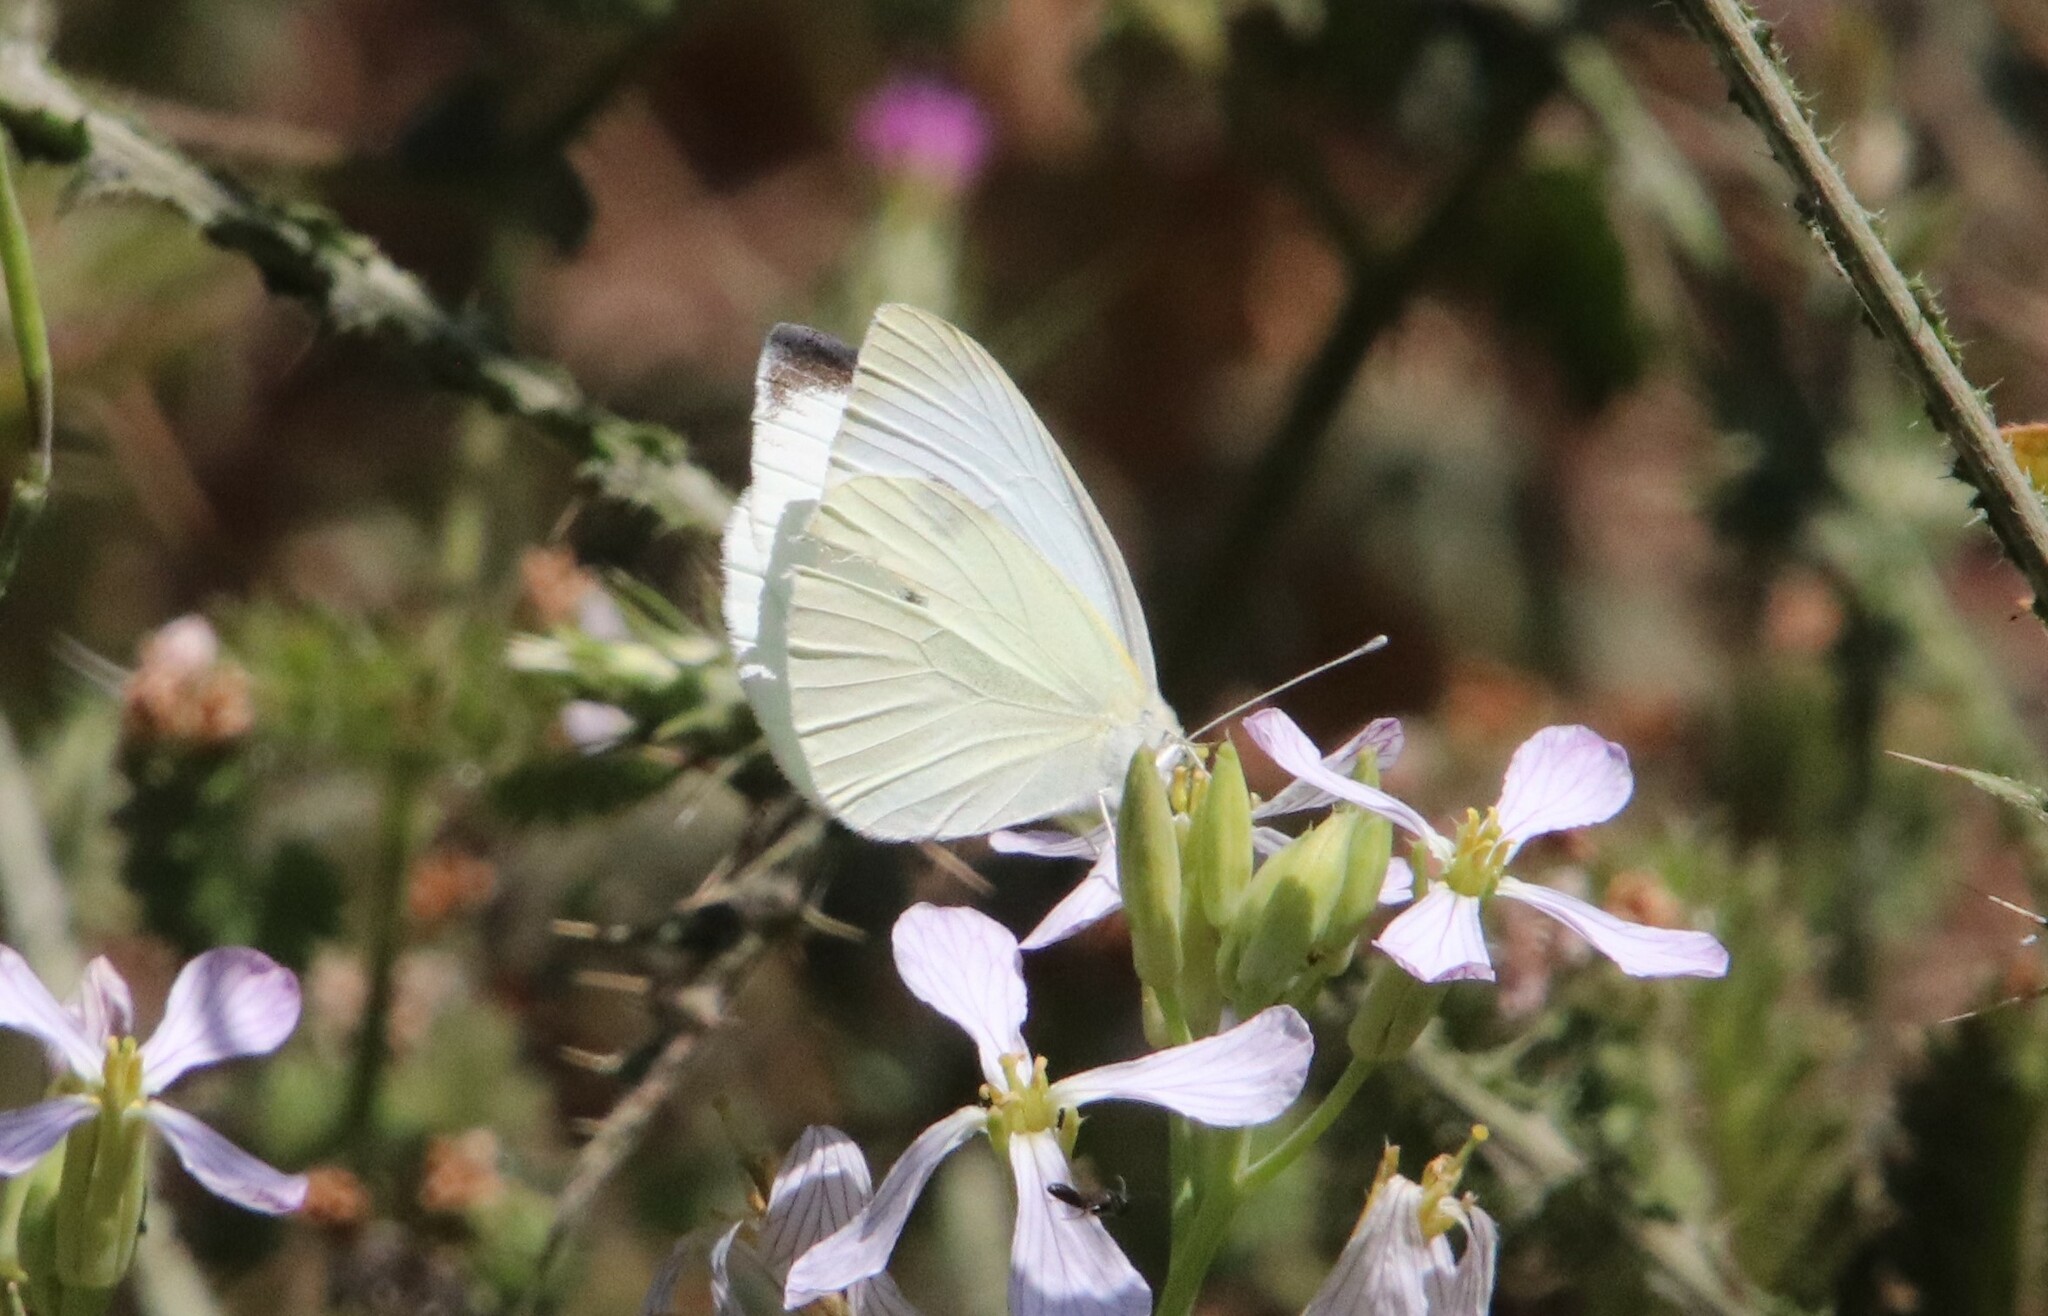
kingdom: Animalia
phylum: Arthropoda
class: Insecta
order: Lepidoptera
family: Pieridae
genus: Pieris
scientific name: Pieris rapae
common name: Small white
